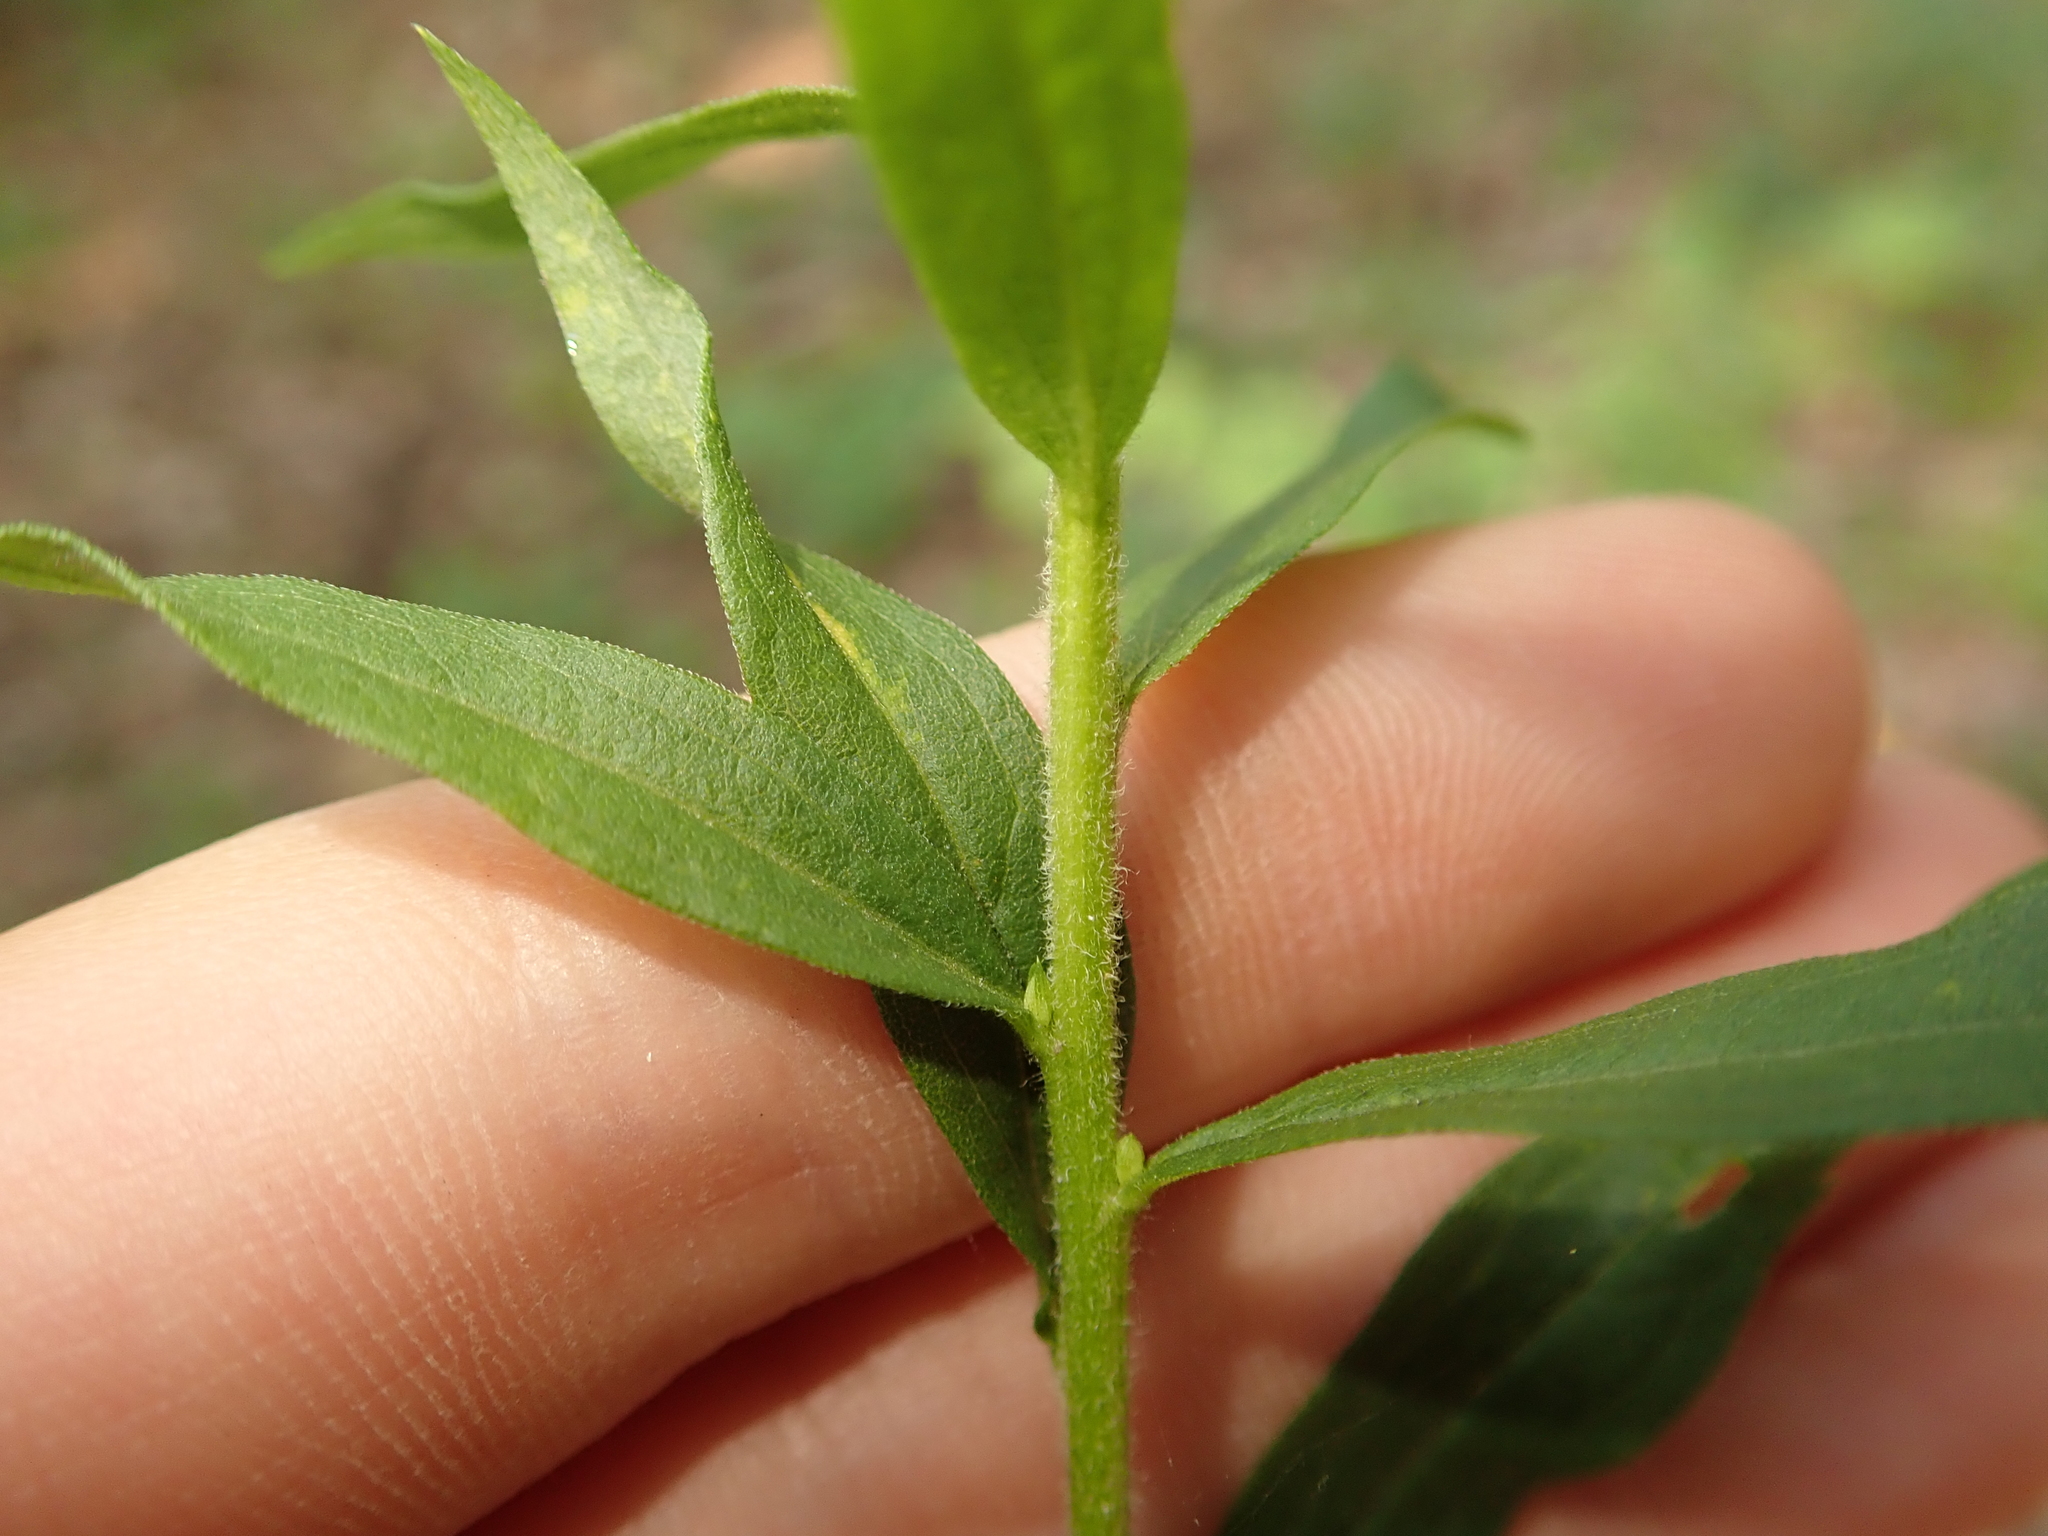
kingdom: Plantae
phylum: Tracheophyta
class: Magnoliopsida
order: Asterales
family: Asteraceae
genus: Solidago
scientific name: Solidago canadensis
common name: Canada goldenrod
